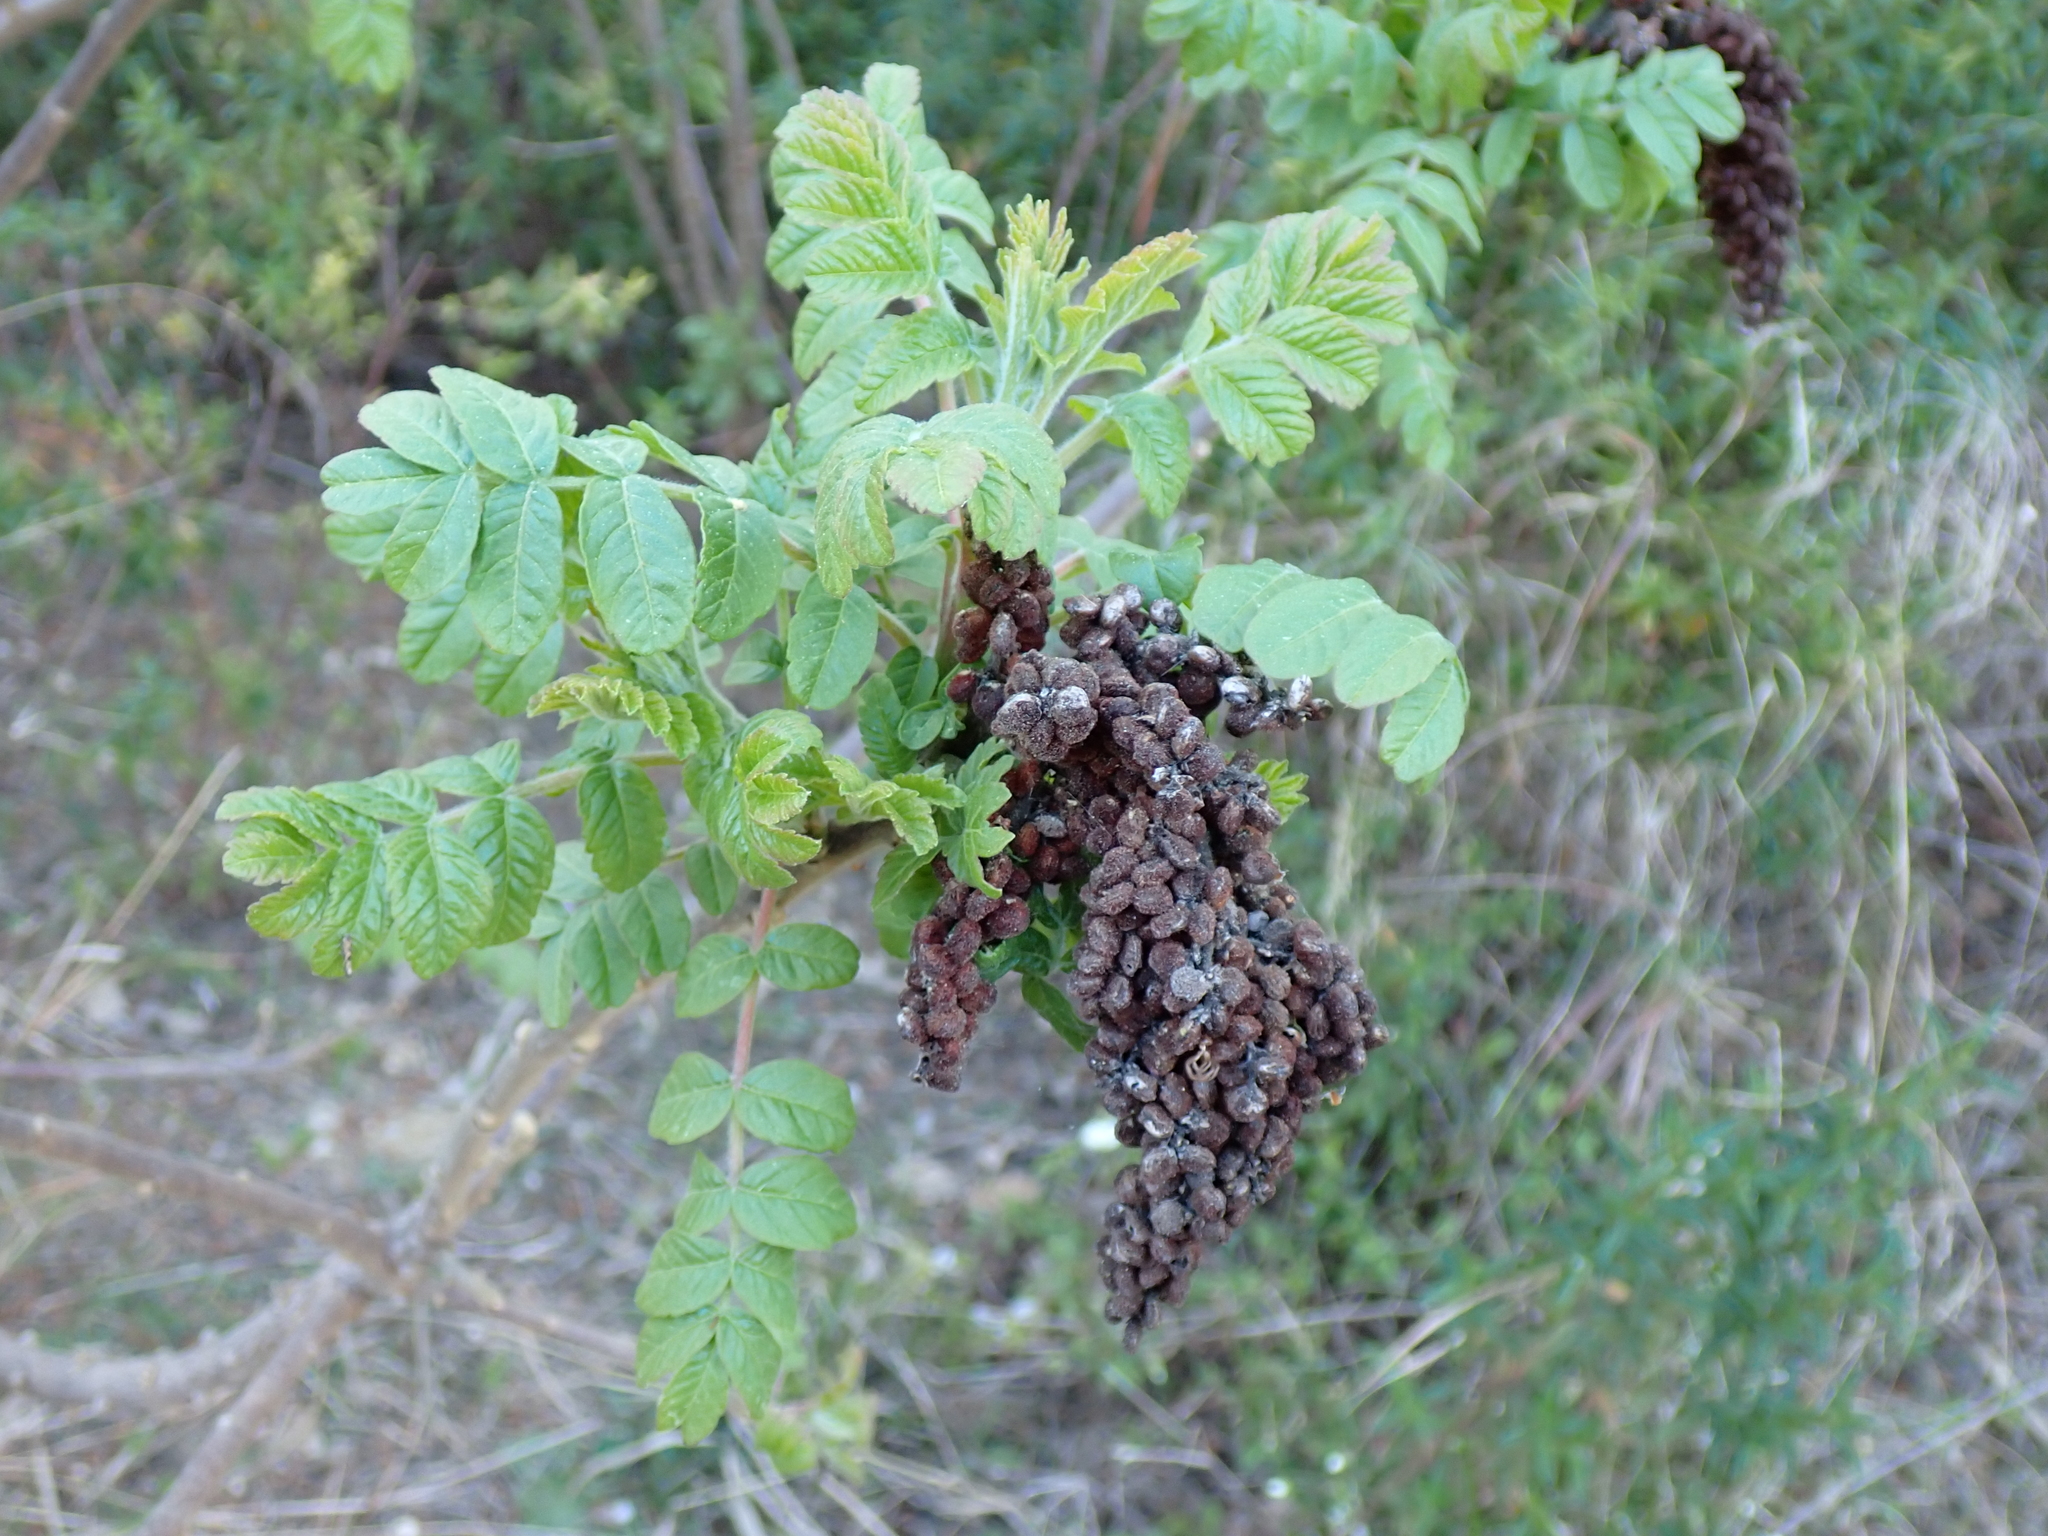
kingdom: Plantae
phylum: Tracheophyta
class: Magnoliopsida
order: Sapindales
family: Anacardiaceae
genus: Rhus
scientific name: Rhus coriaria
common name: Tanner's sumach
